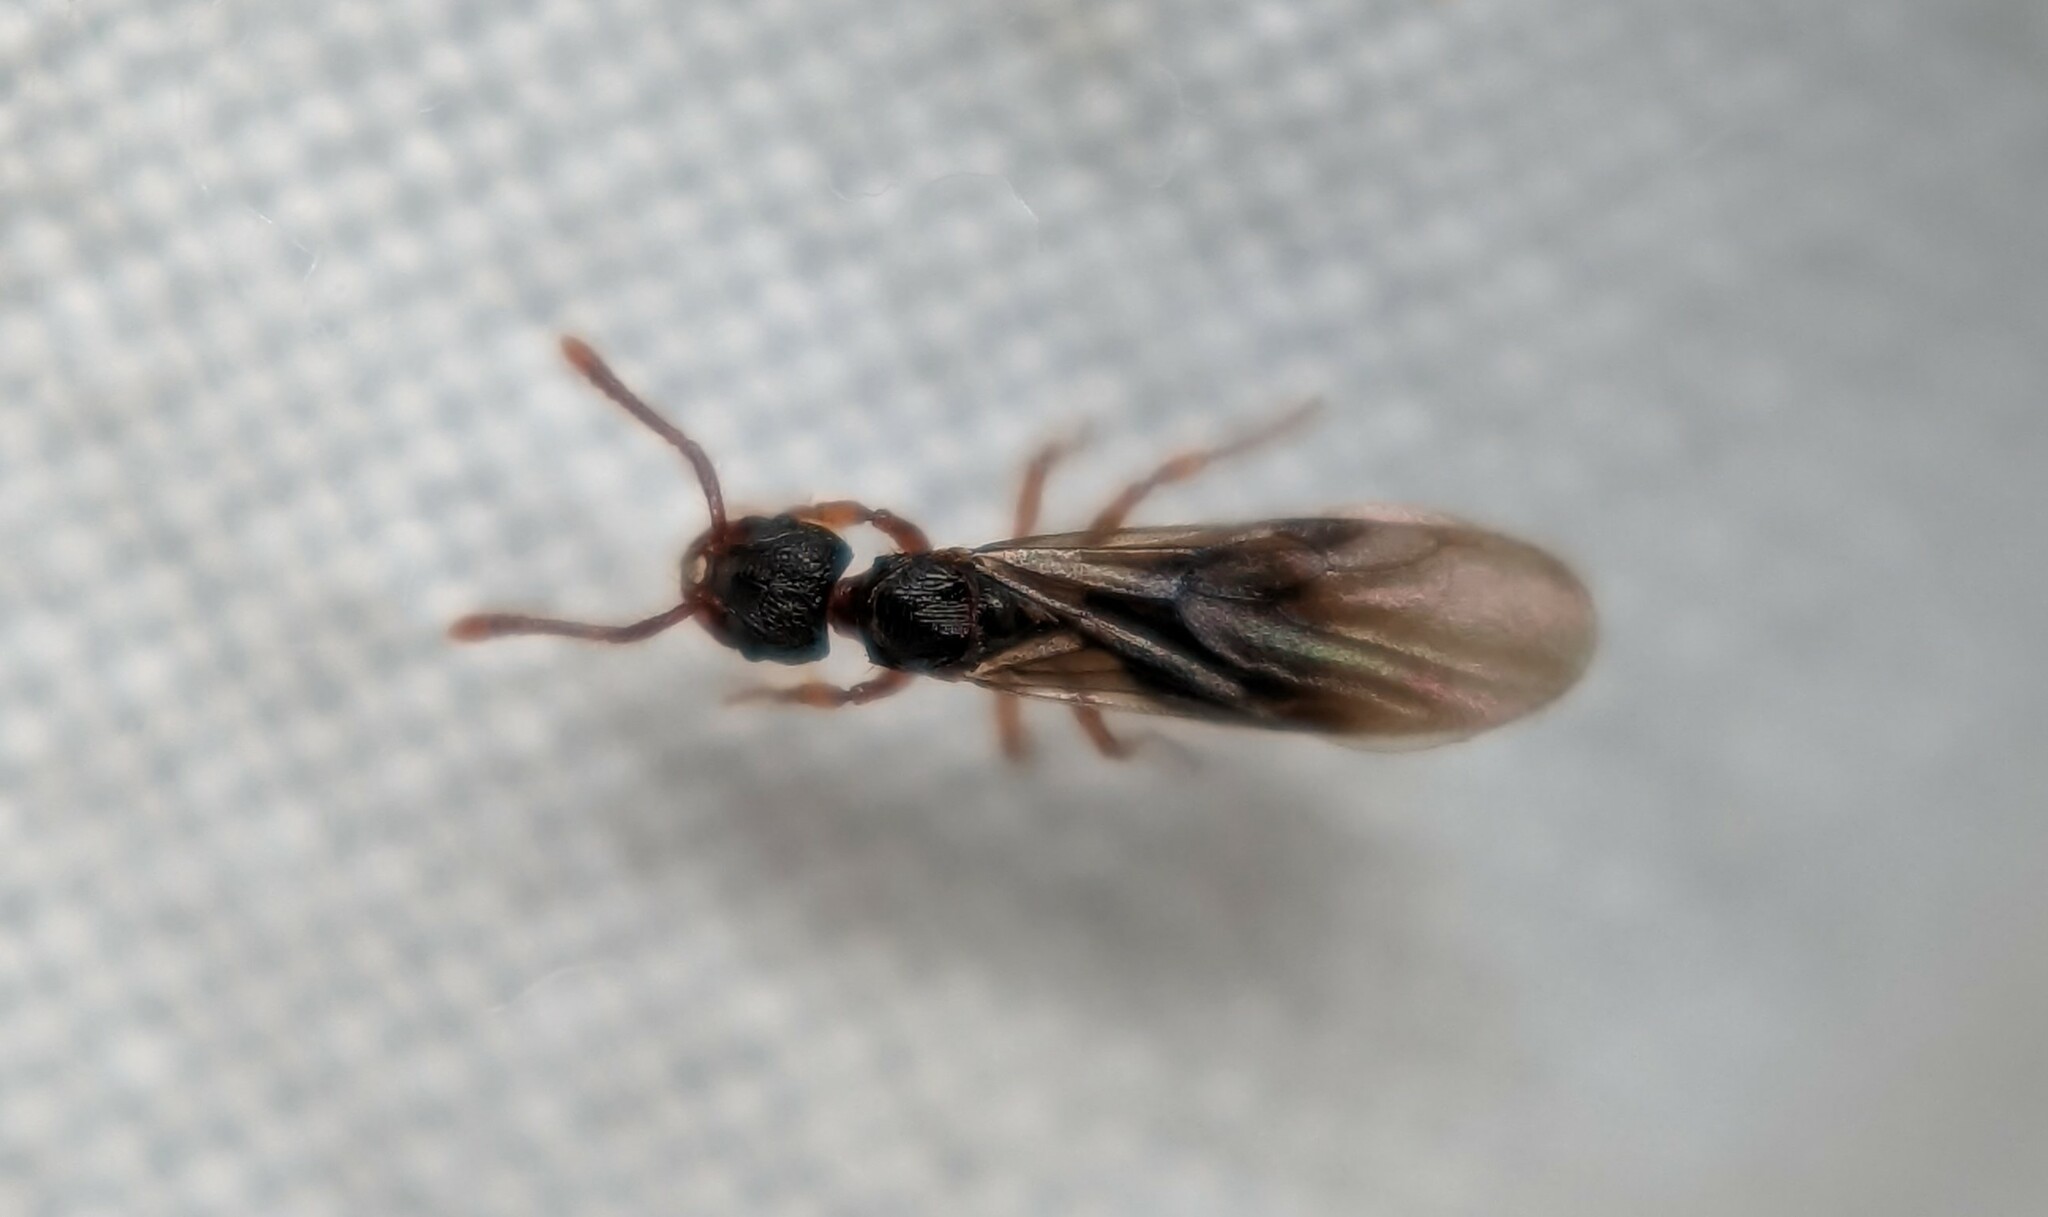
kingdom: Animalia
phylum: Arthropoda
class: Insecta
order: Hymenoptera
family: Formicidae
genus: Myrmecina
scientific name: Myrmecina graminicola
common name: Grass ant
